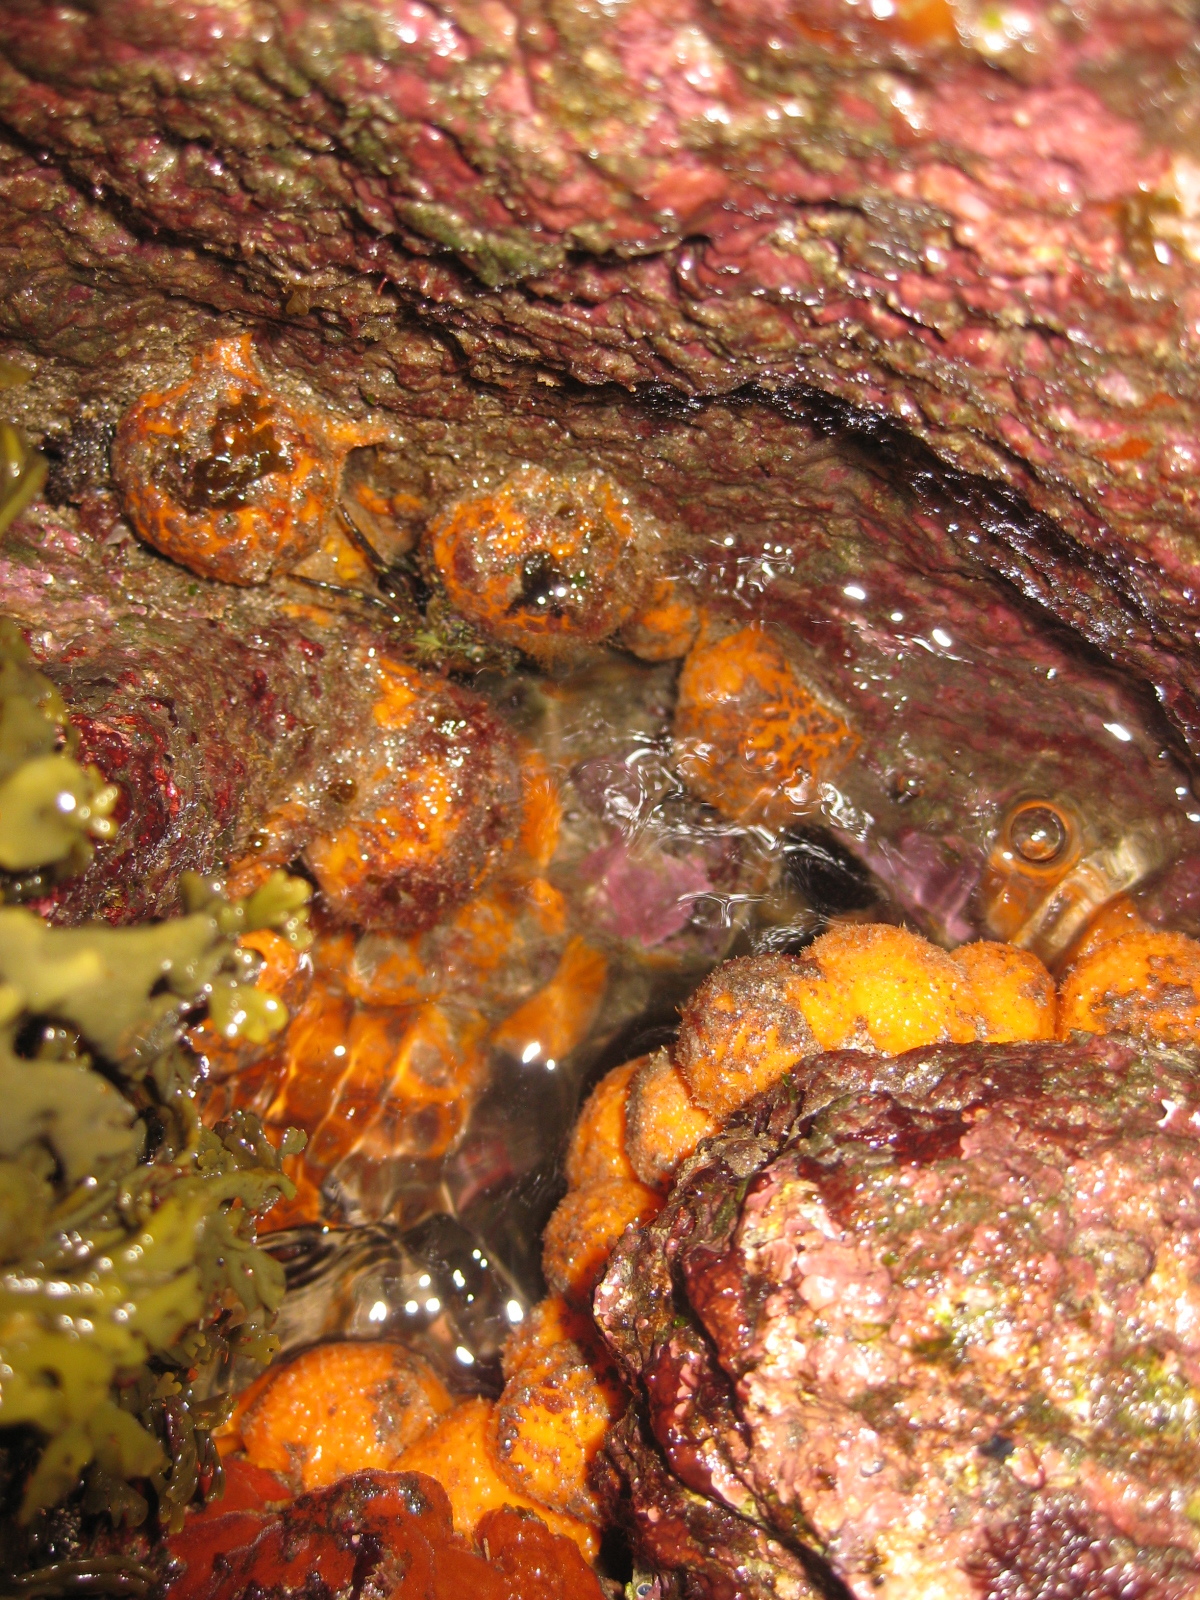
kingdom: Animalia
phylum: Porifera
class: Demospongiae
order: Tethyida
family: Tethyidae
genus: Tethya
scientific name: Tethya burtoni
